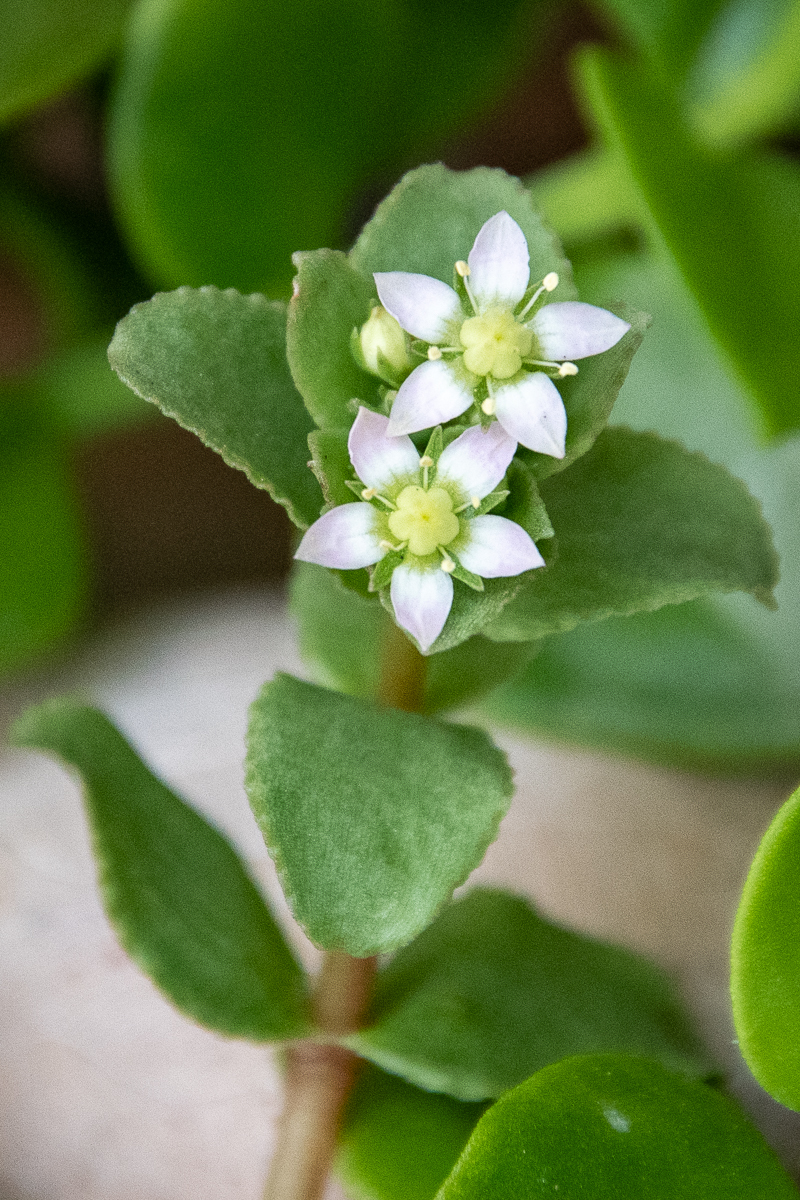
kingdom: Plantae
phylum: Tracheophyta
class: Magnoliopsida
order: Saxifragales
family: Crassulaceae
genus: Crassula
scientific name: Crassula pellucida
